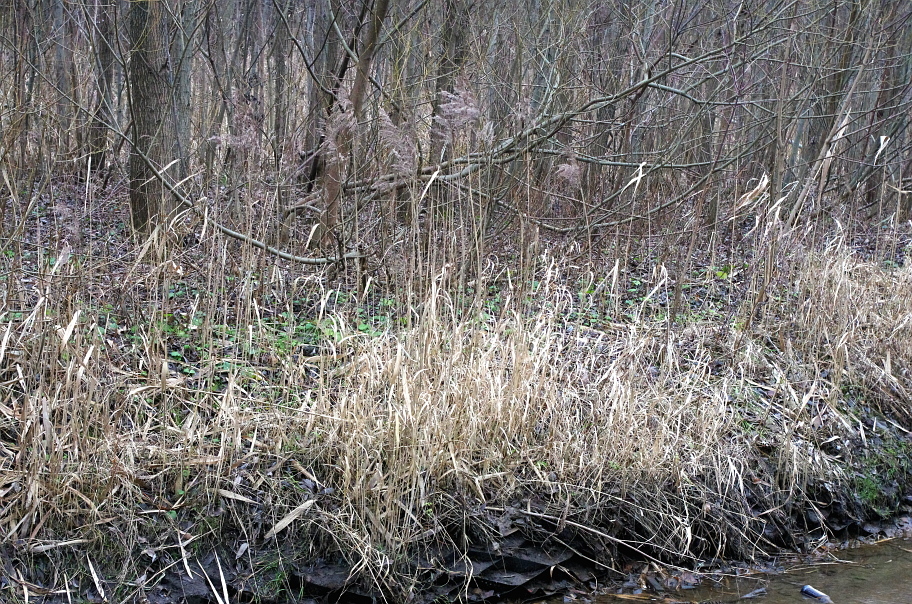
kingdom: Plantae
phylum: Tracheophyta
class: Liliopsida
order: Poales
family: Poaceae
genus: Phragmites
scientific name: Phragmites australis
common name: Common reed
